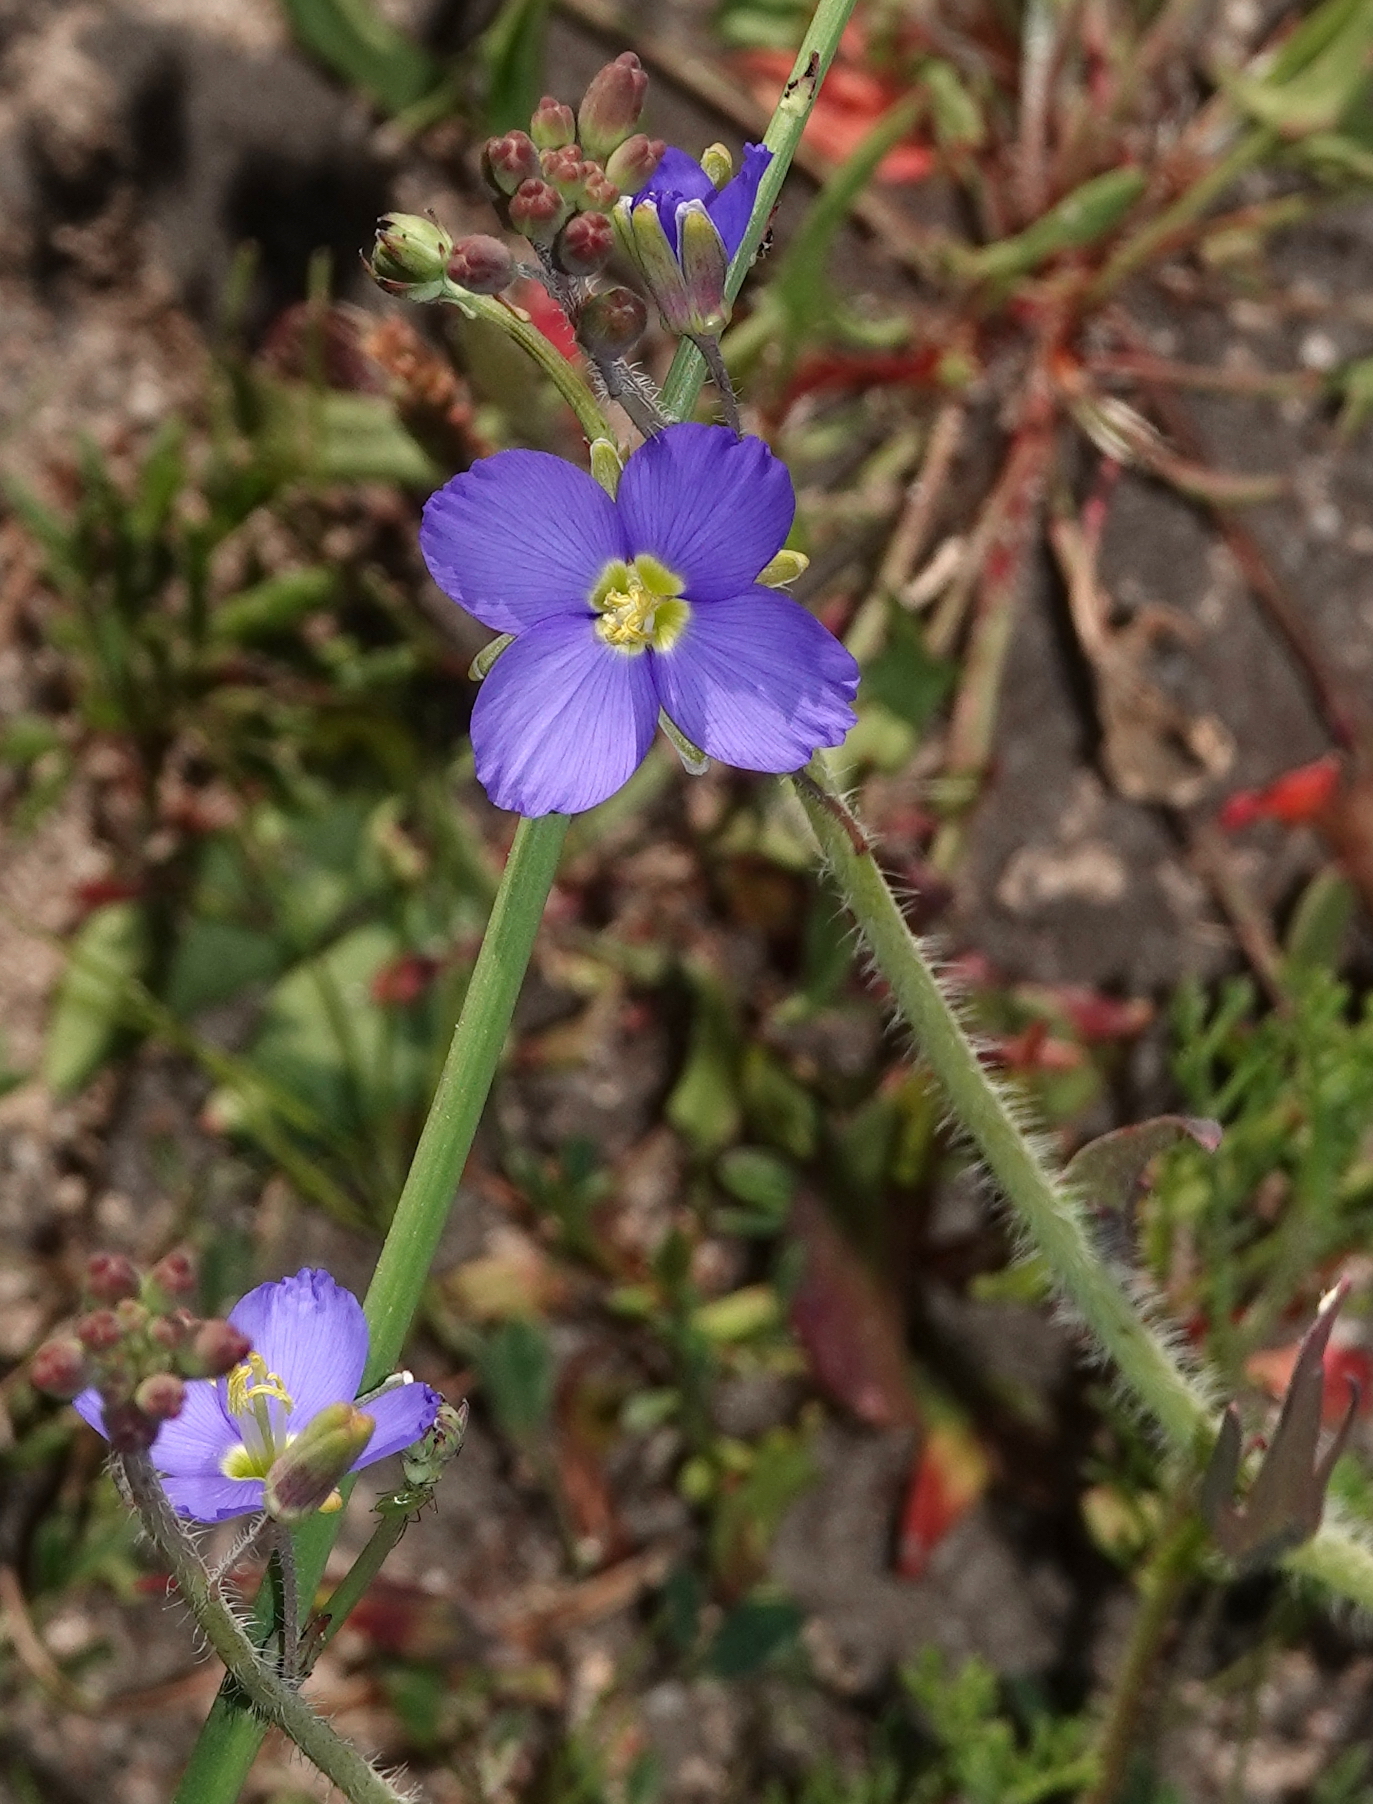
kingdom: Plantae
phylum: Tracheophyta
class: Magnoliopsida
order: Brassicales
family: Brassicaceae
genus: Heliophila
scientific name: Heliophila africana
